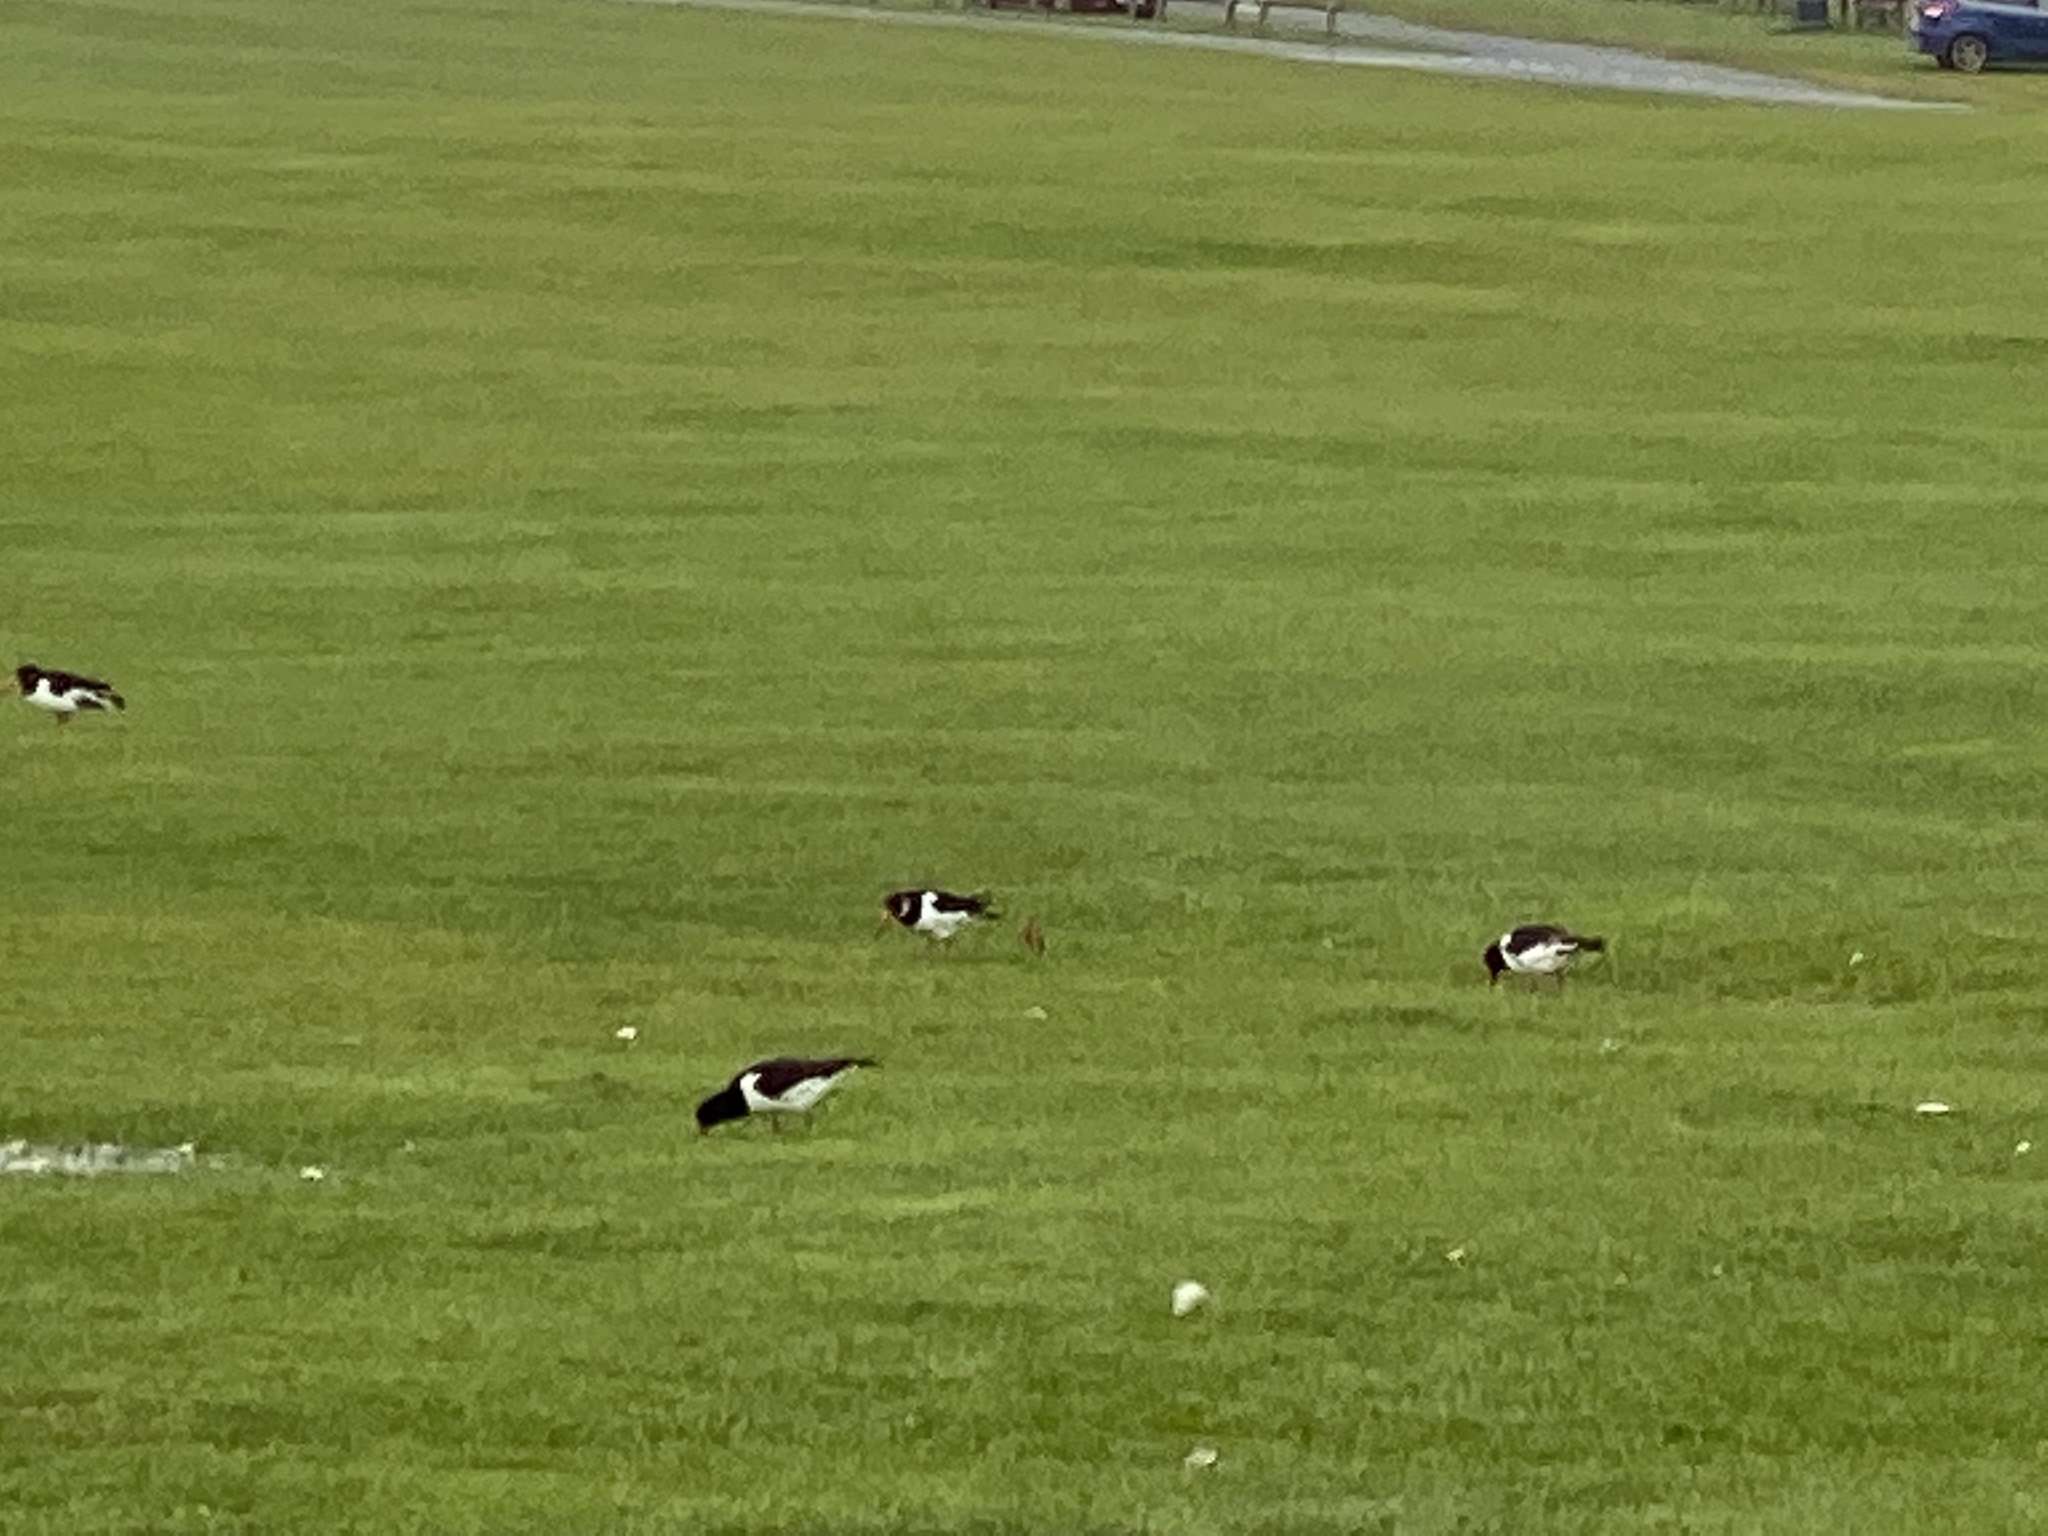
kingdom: Animalia
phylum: Chordata
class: Aves
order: Charadriiformes
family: Haematopodidae
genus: Haematopus
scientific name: Haematopus ostralegus
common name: Eurasian oystercatcher
